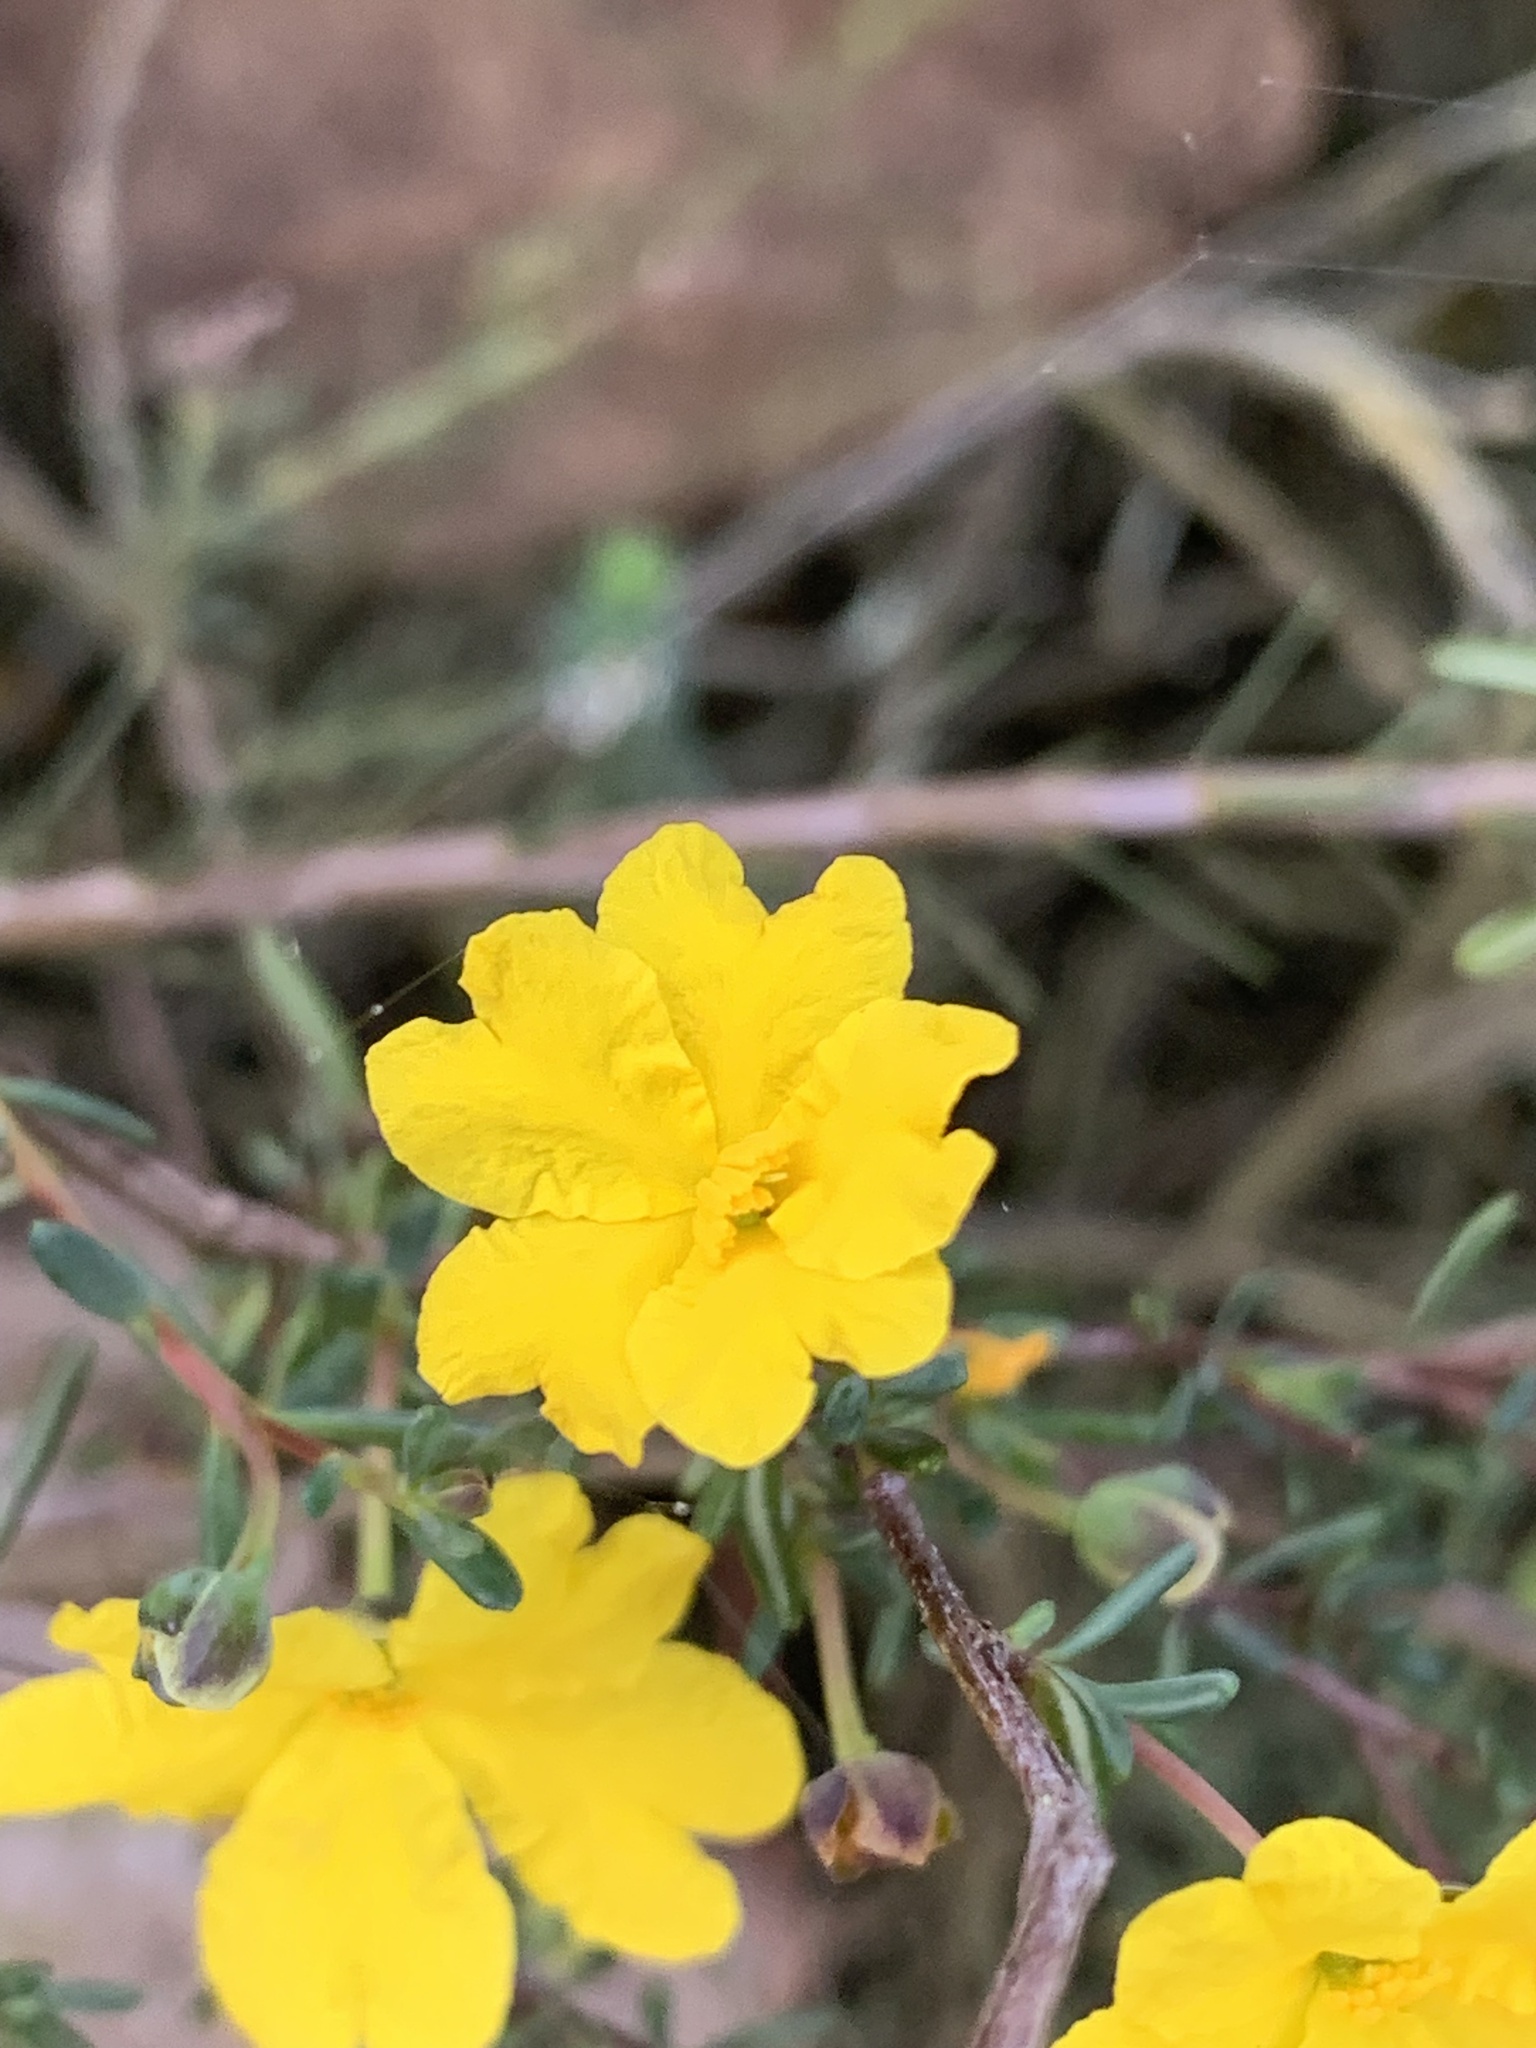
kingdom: Plantae
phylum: Tracheophyta
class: Magnoliopsida
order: Dilleniales
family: Dilleniaceae
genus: Hibbertia
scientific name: Hibbertia gracilipes
